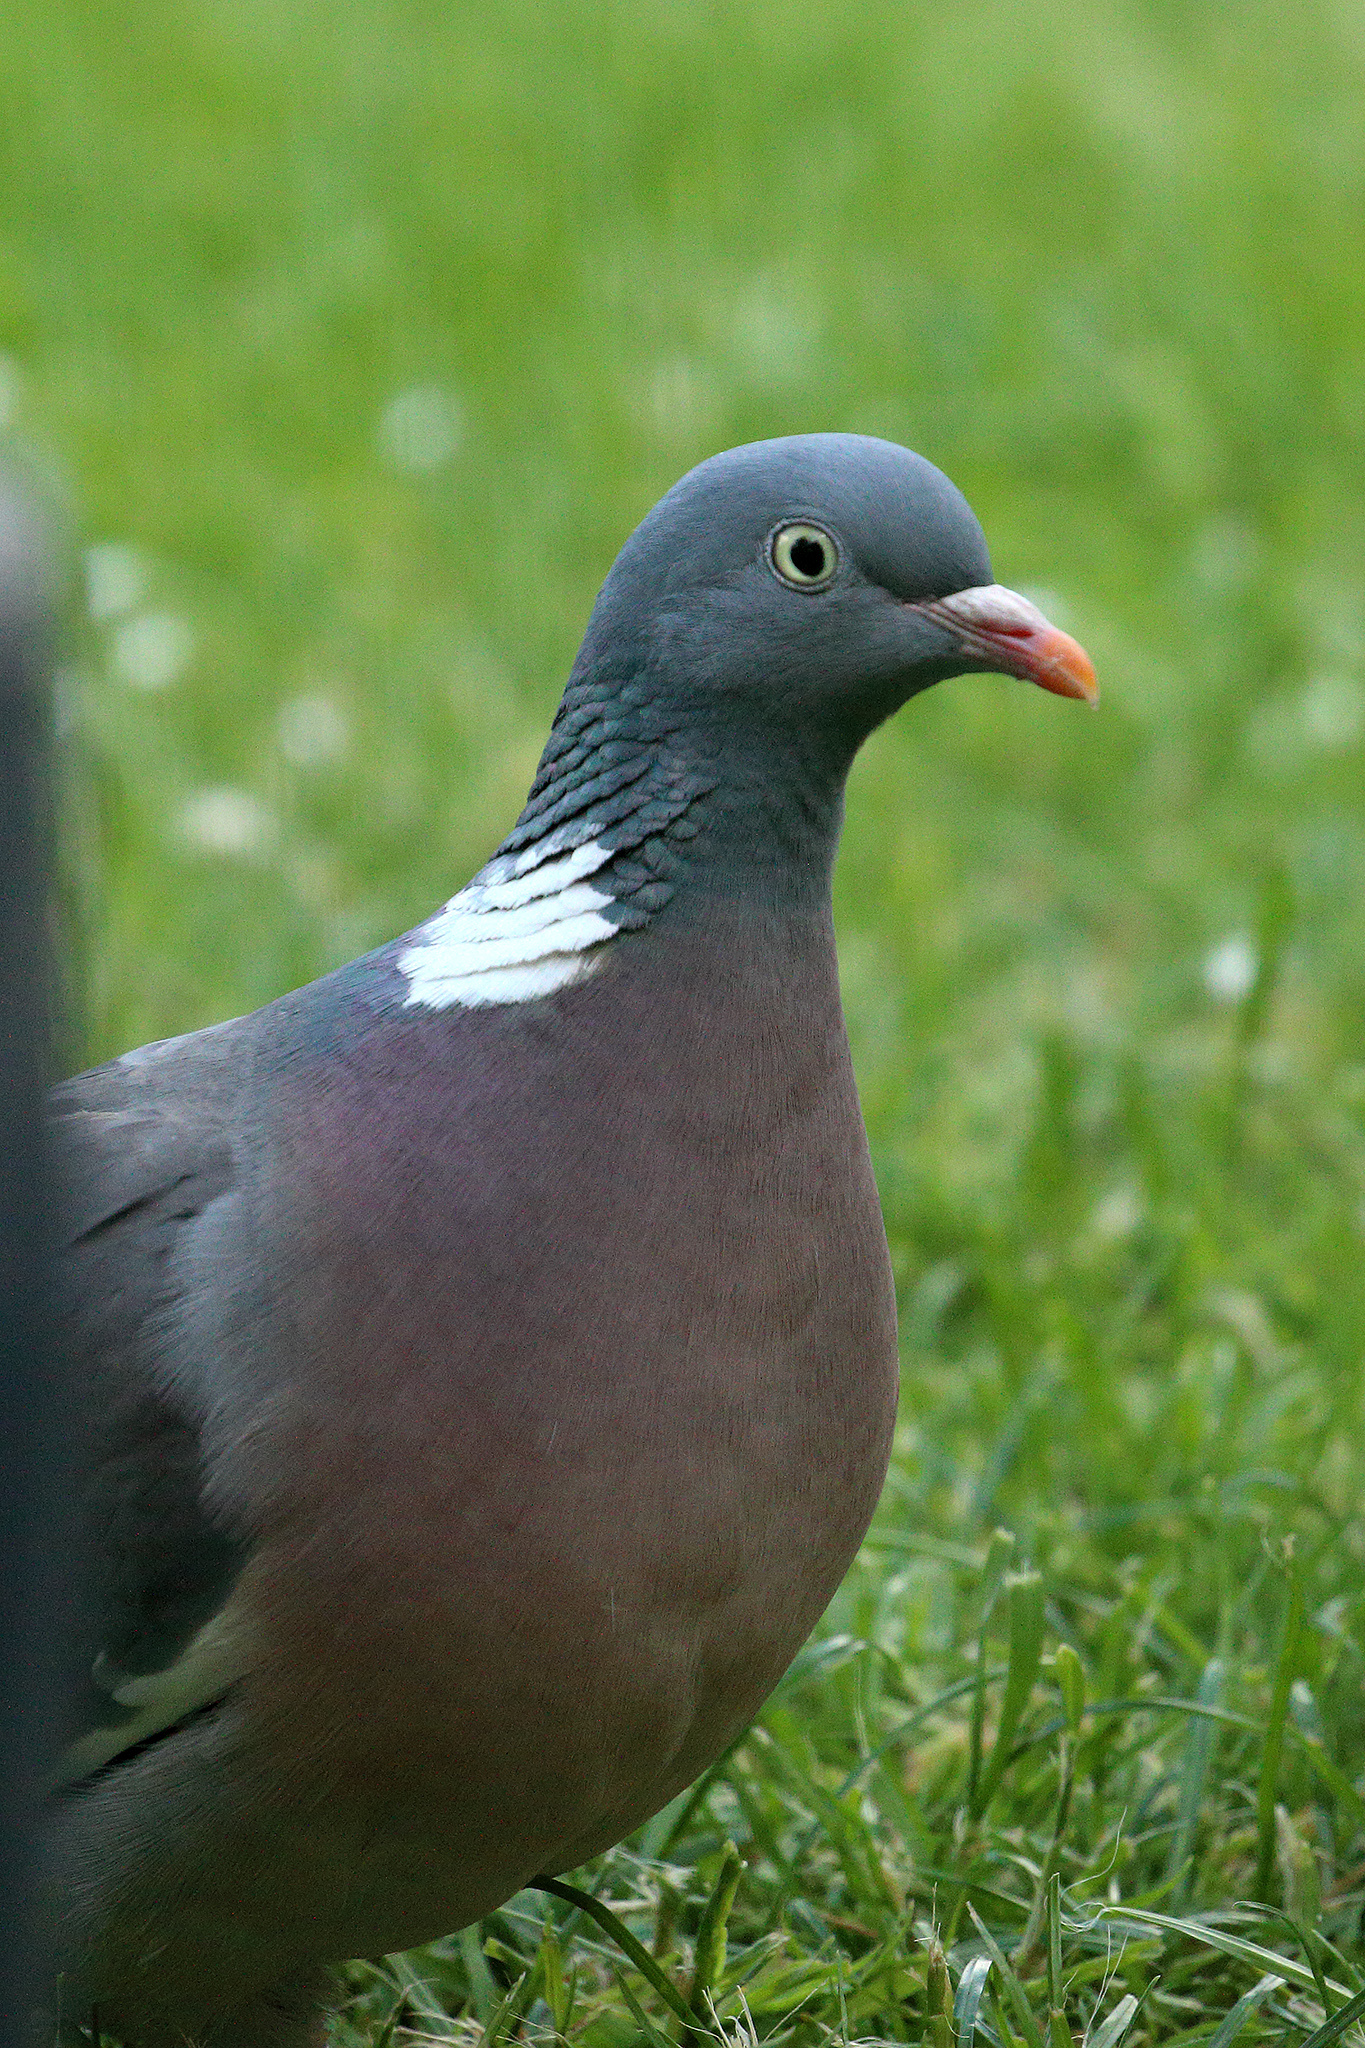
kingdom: Animalia
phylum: Chordata
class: Aves
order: Columbiformes
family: Columbidae
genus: Columba
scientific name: Columba palumbus
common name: Common wood pigeon
